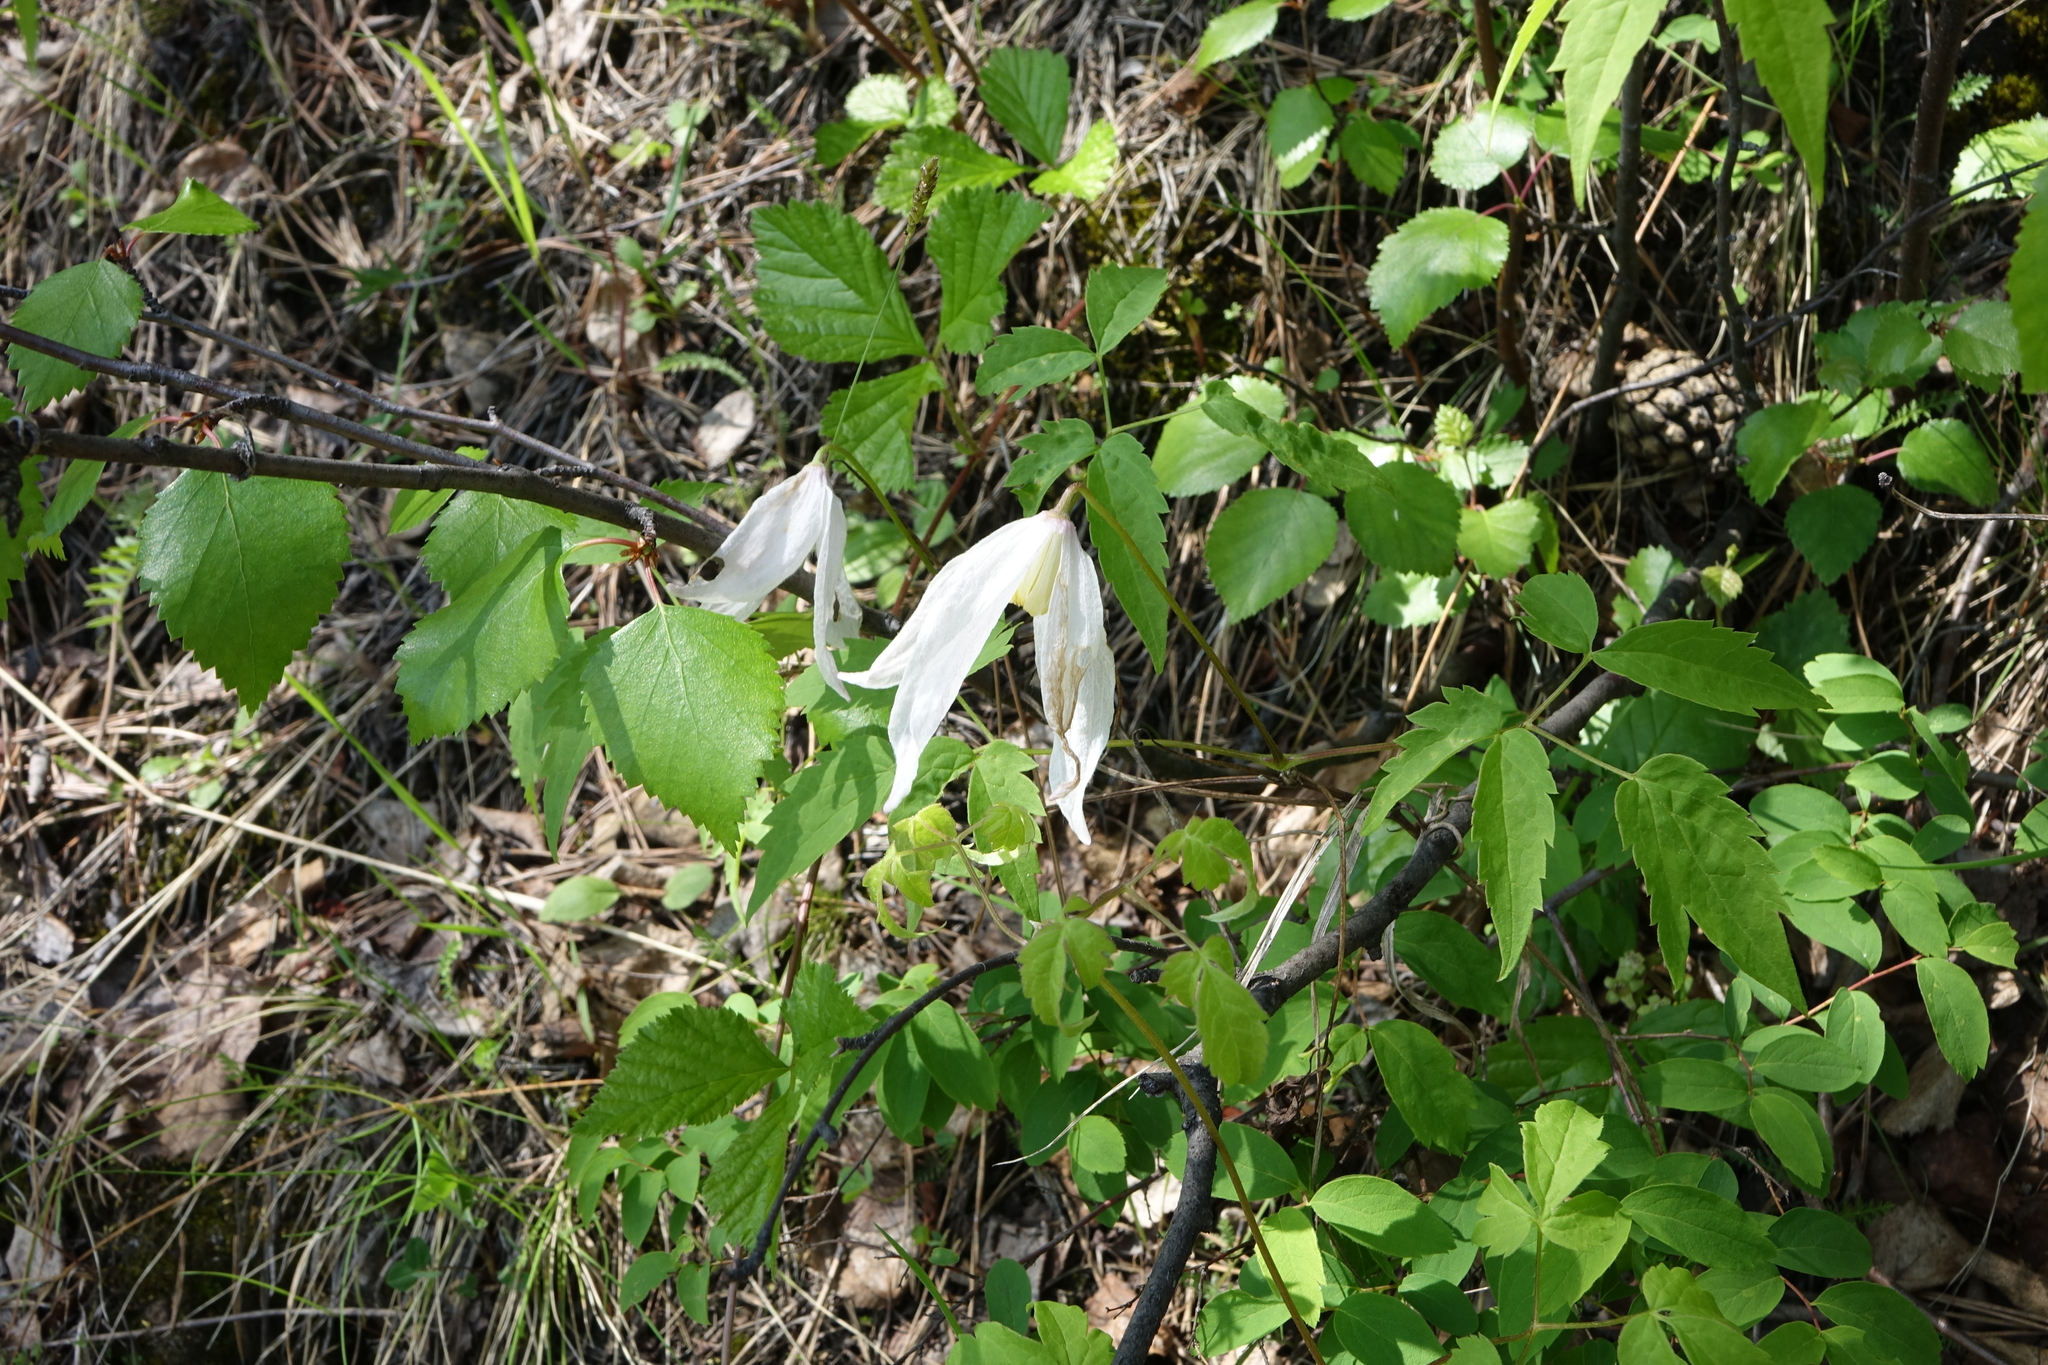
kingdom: Plantae
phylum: Tracheophyta
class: Magnoliopsida
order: Ranunculales
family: Ranunculaceae
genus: Clematis
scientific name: Clematis sibirica
